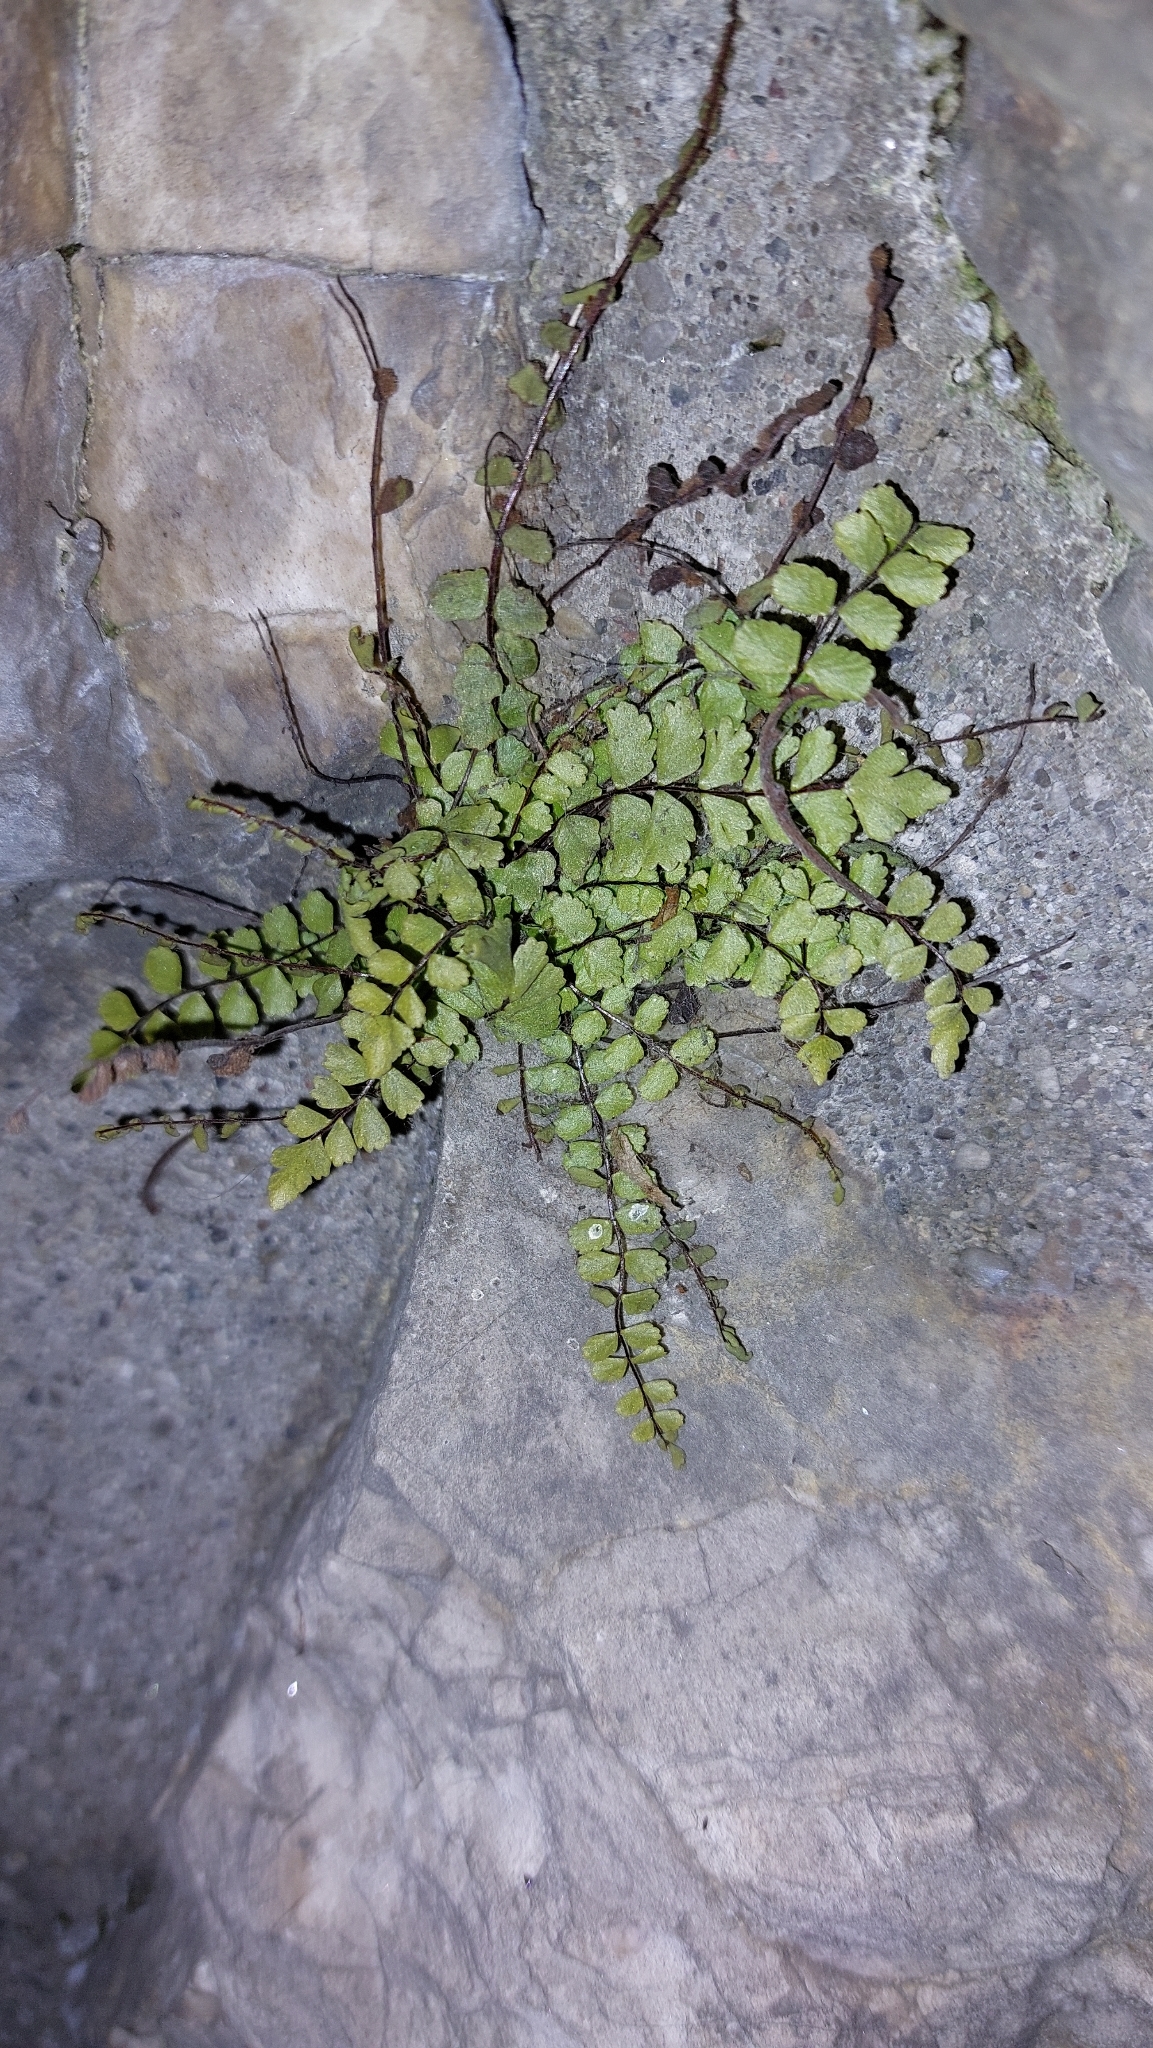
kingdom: Plantae
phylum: Tracheophyta
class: Polypodiopsida
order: Polypodiales
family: Aspleniaceae
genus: Asplenium
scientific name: Asplenium trichomanes
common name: Maidenhair spleenwort
